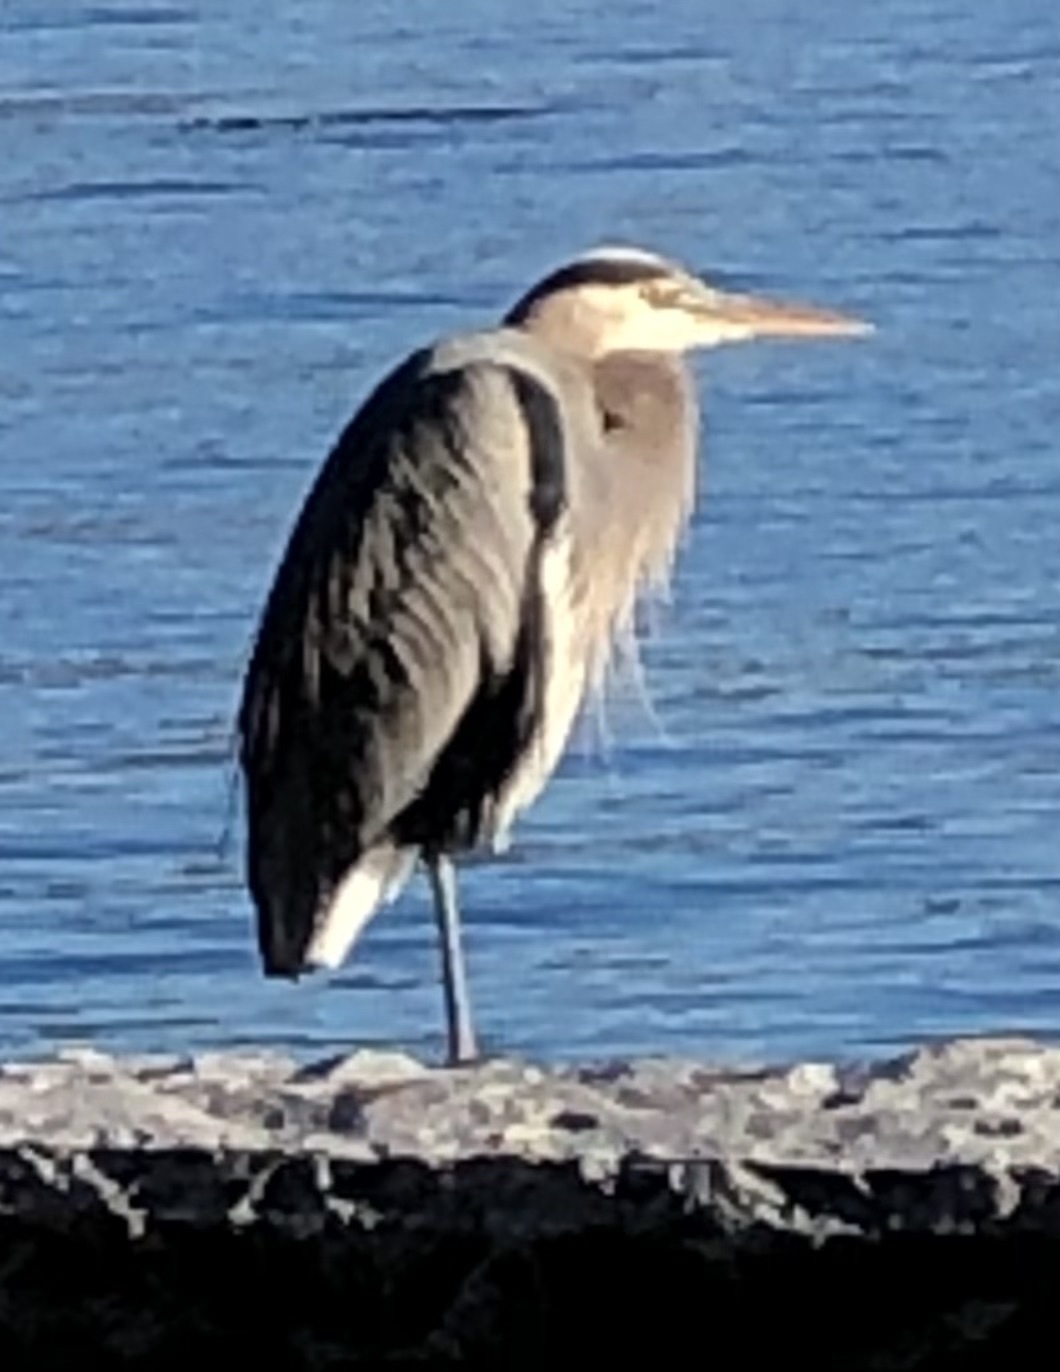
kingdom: Animalia
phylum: Chordata
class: Aves
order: Pelecaniformes
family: Ardeidae
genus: Ardea
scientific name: Ardea herodias
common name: Great blue heron
